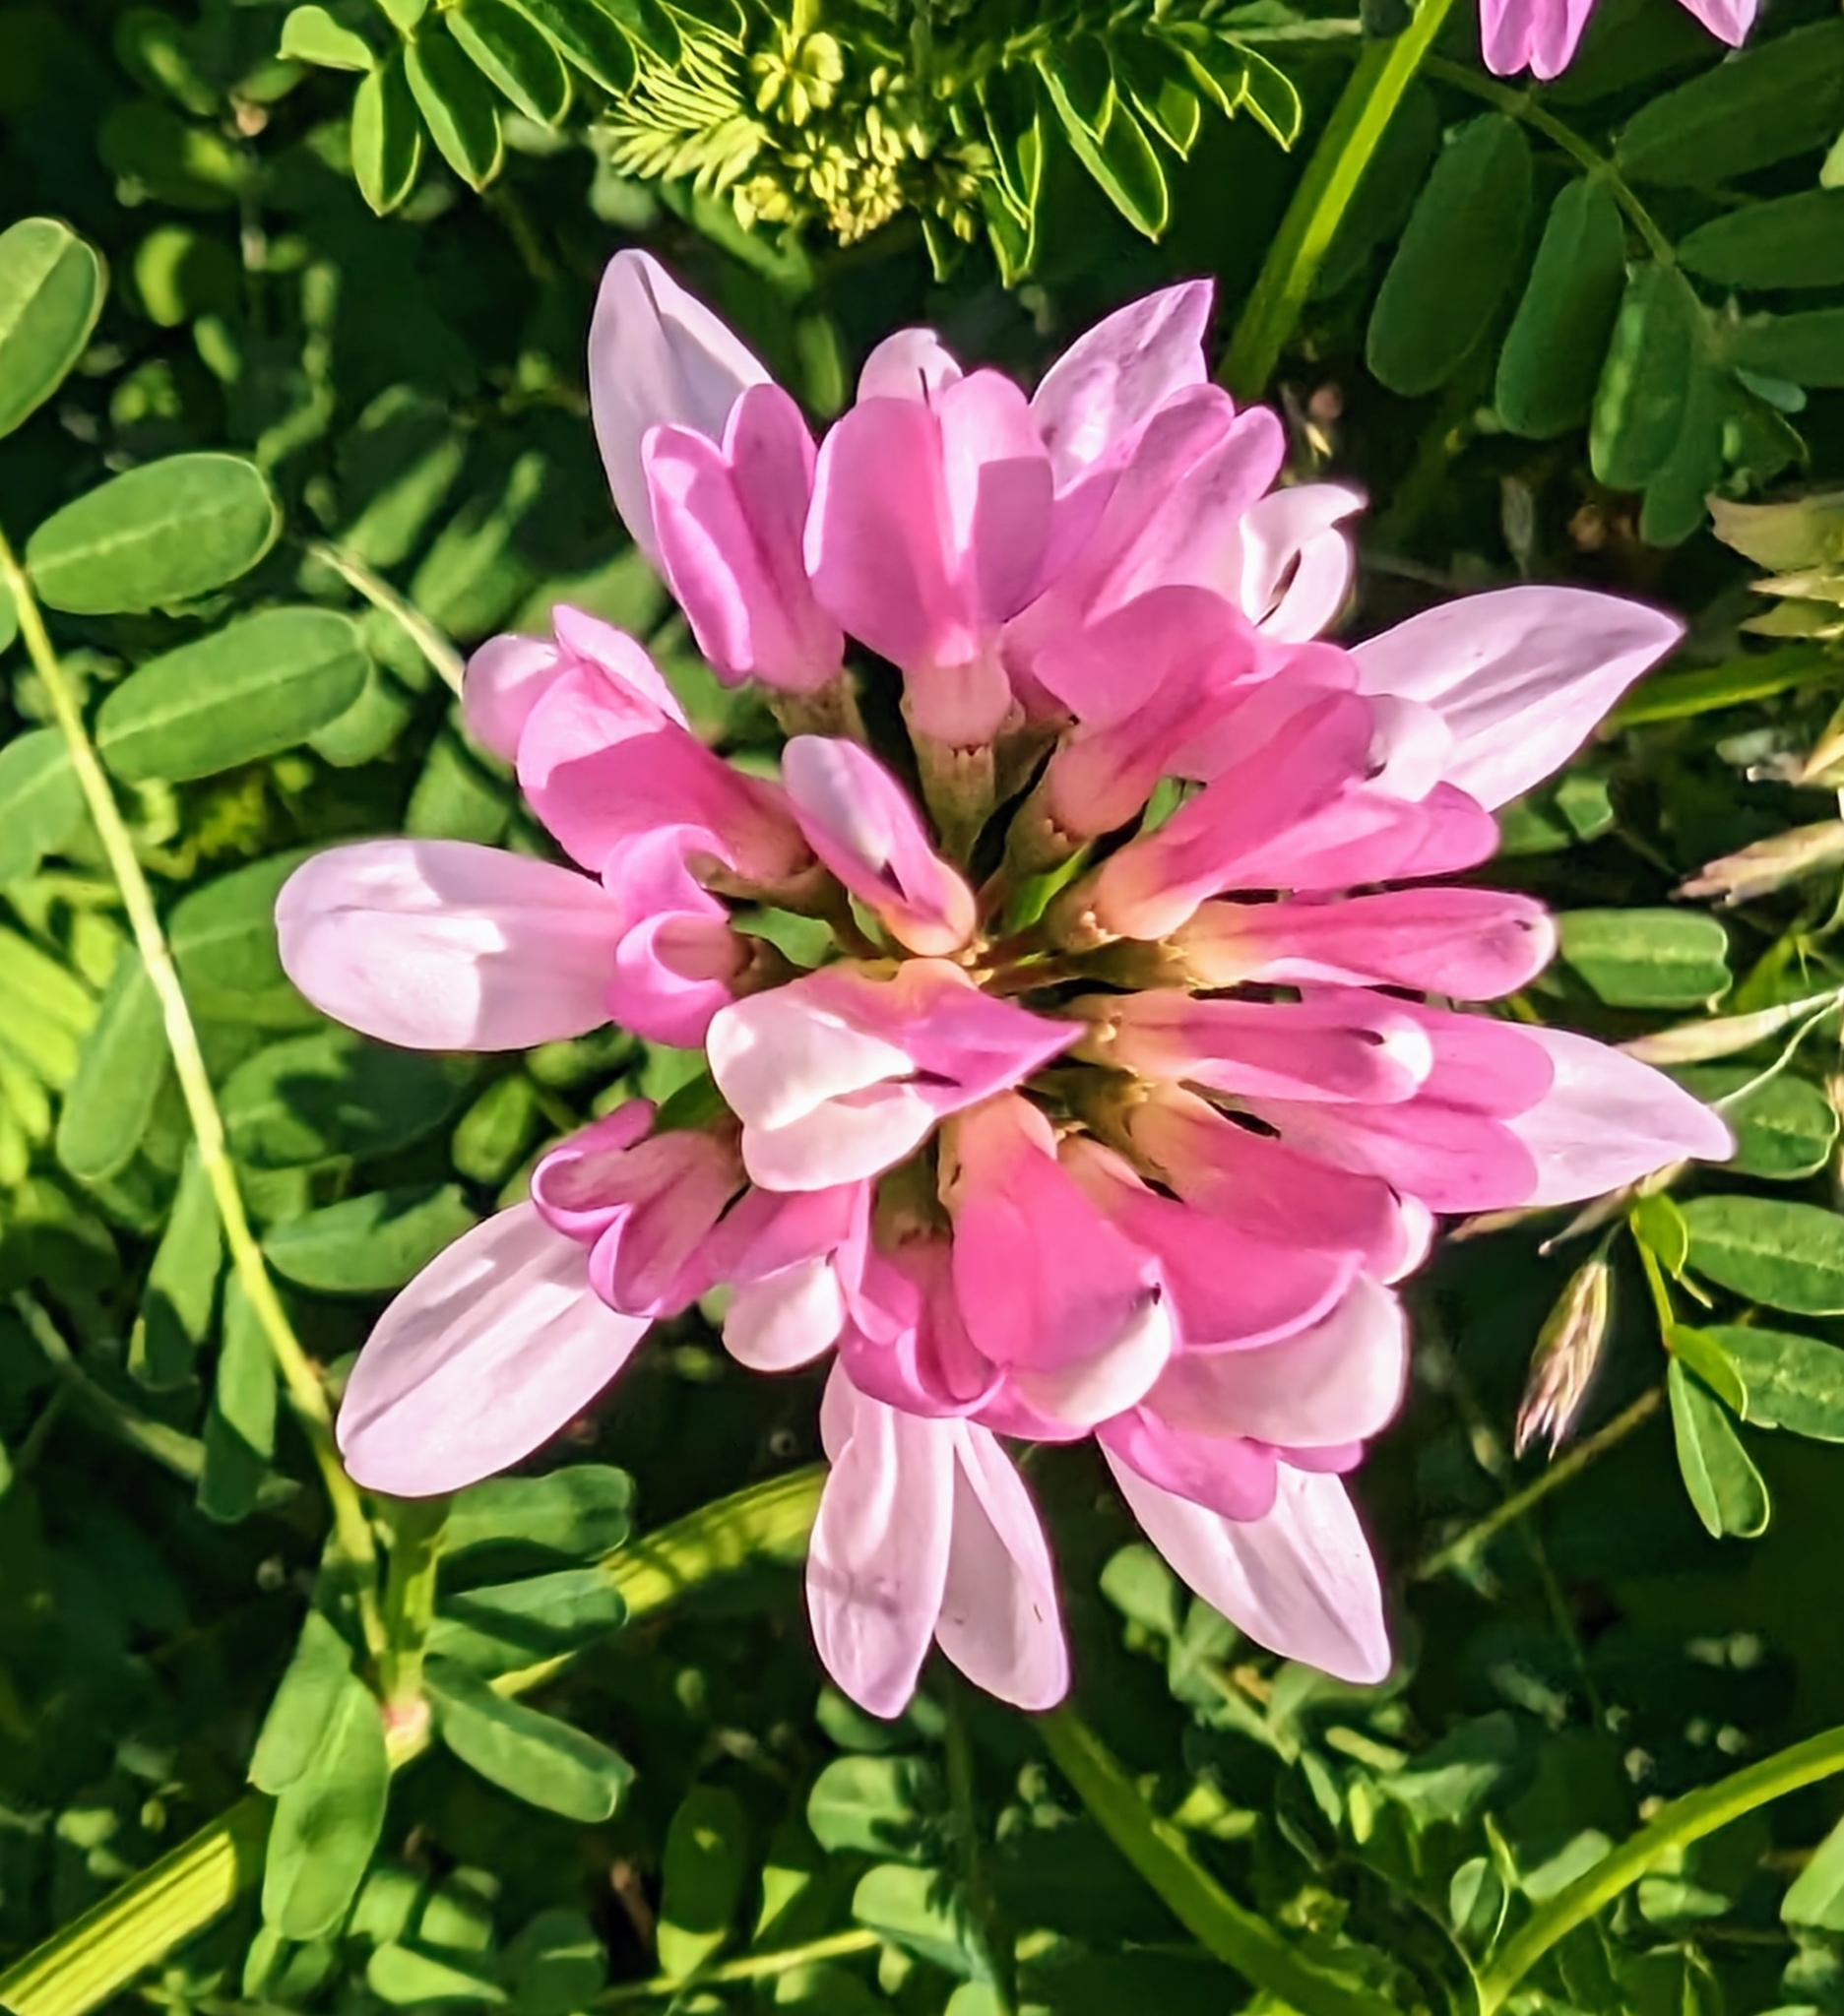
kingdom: Plantae
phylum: Tracheophyta
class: Magnoliopsida
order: Fabales
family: Fabaceae
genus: Coronilla
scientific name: Coronilla varia
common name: Crownvetch
